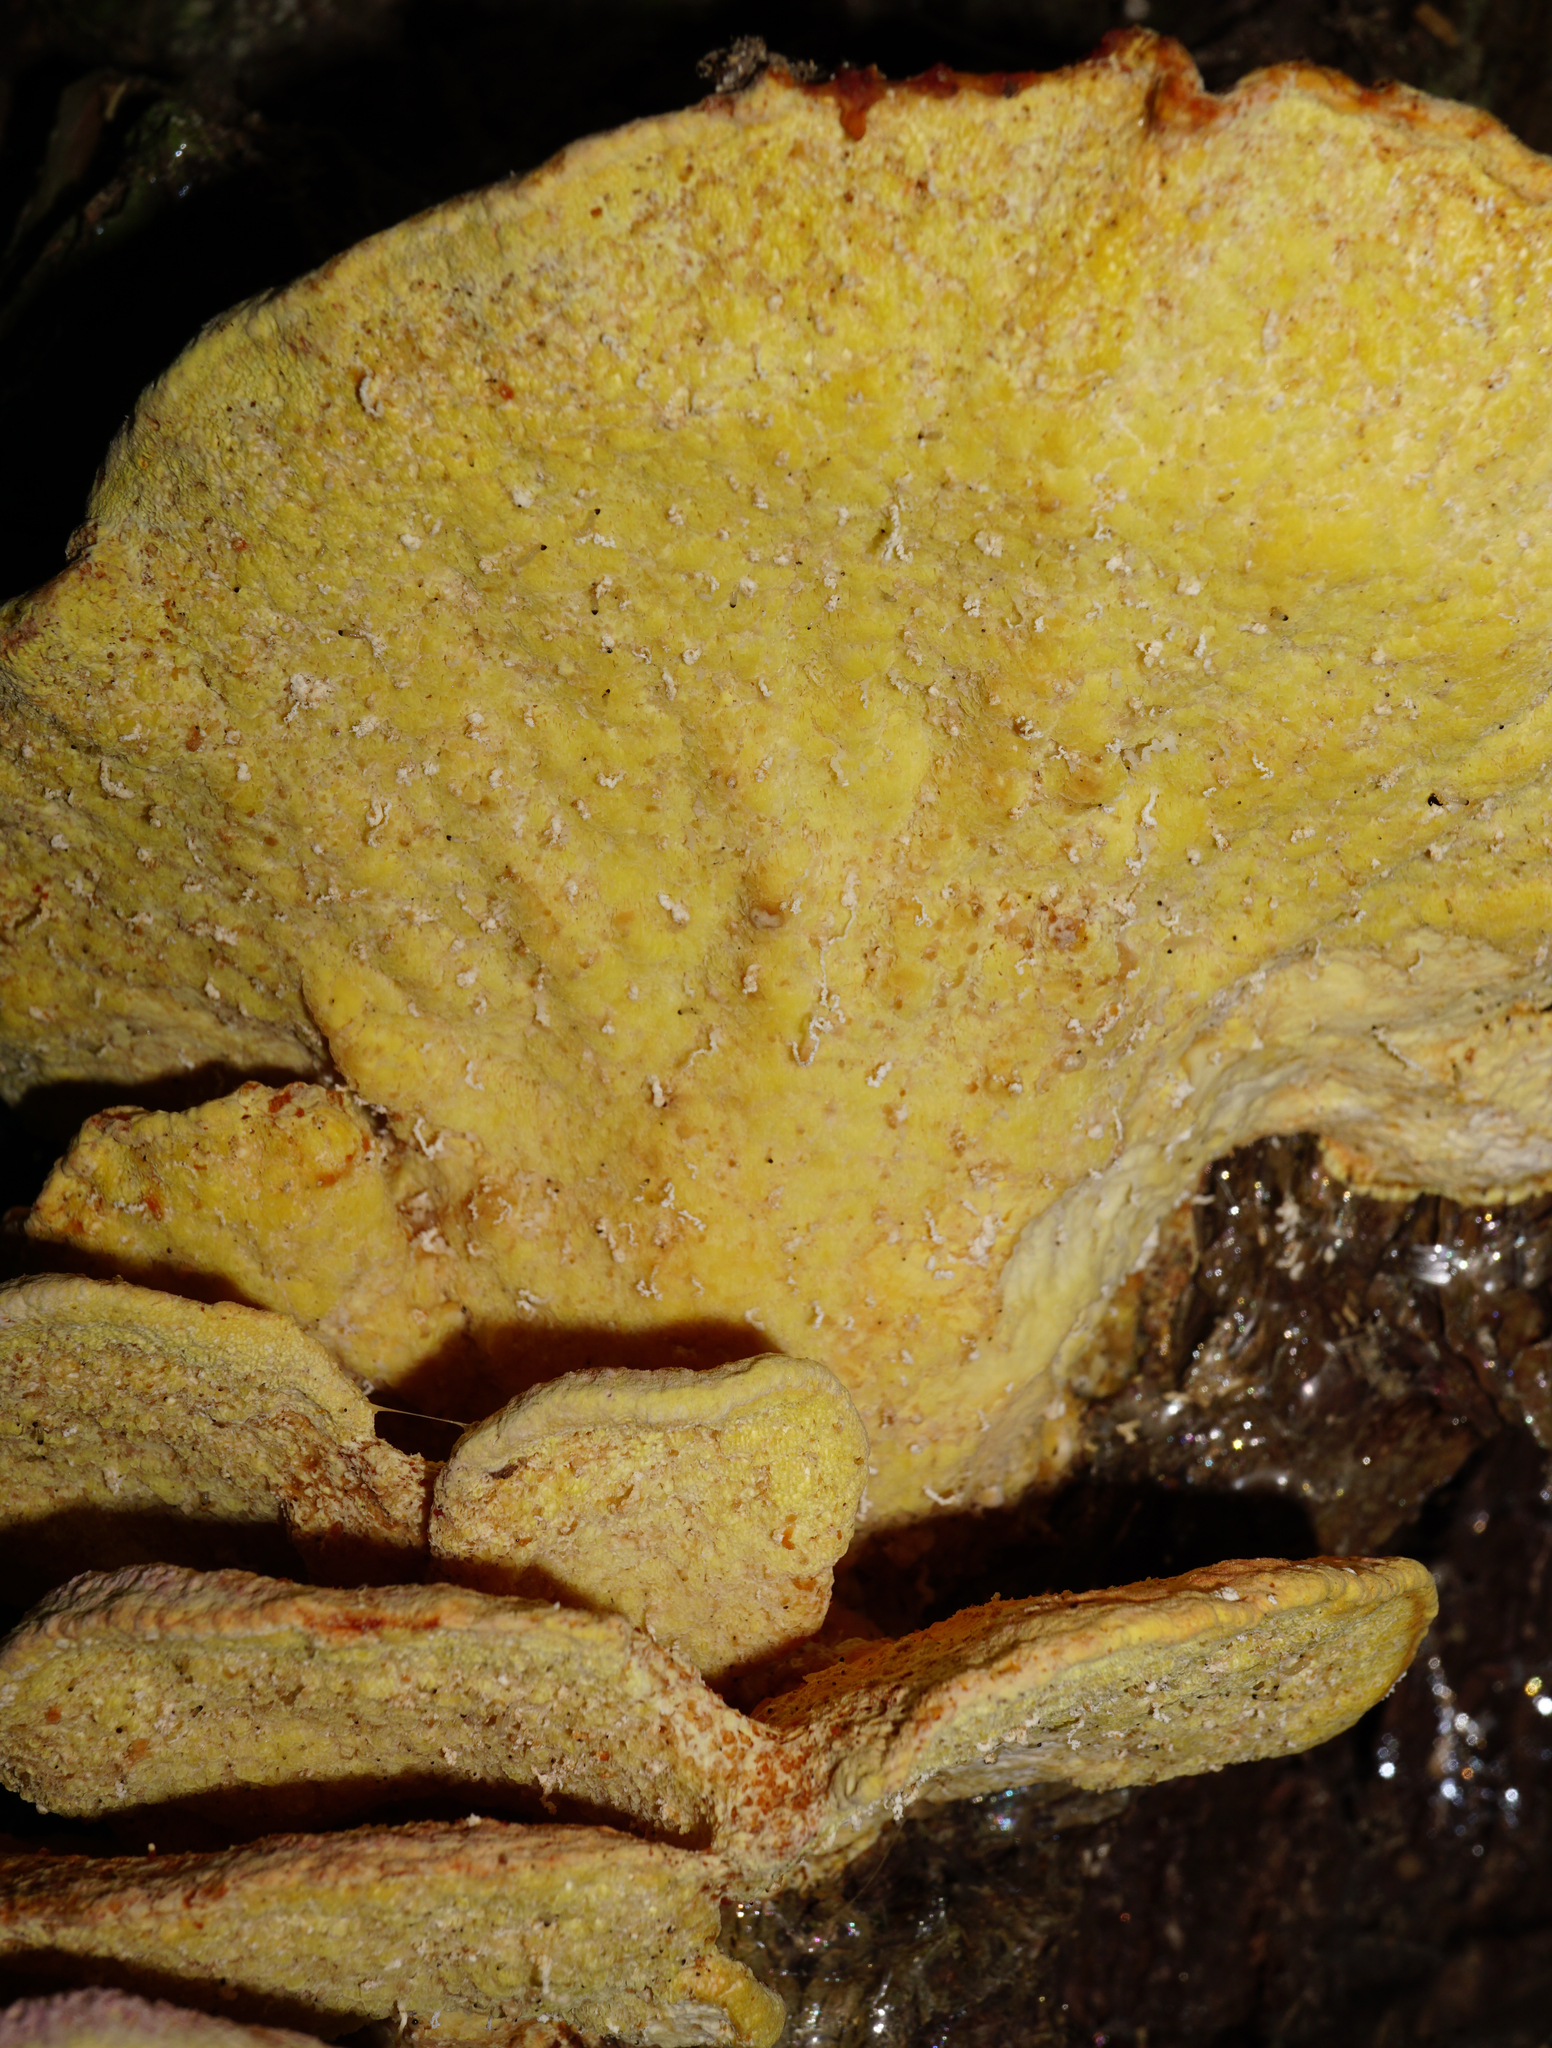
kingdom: Fungi
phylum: Basidiomycota
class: Agaricomycetes
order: Polyporales
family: Laetiporaceae
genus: Laetiporus
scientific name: Laetiporus sulphureus
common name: Chicken of the woods
